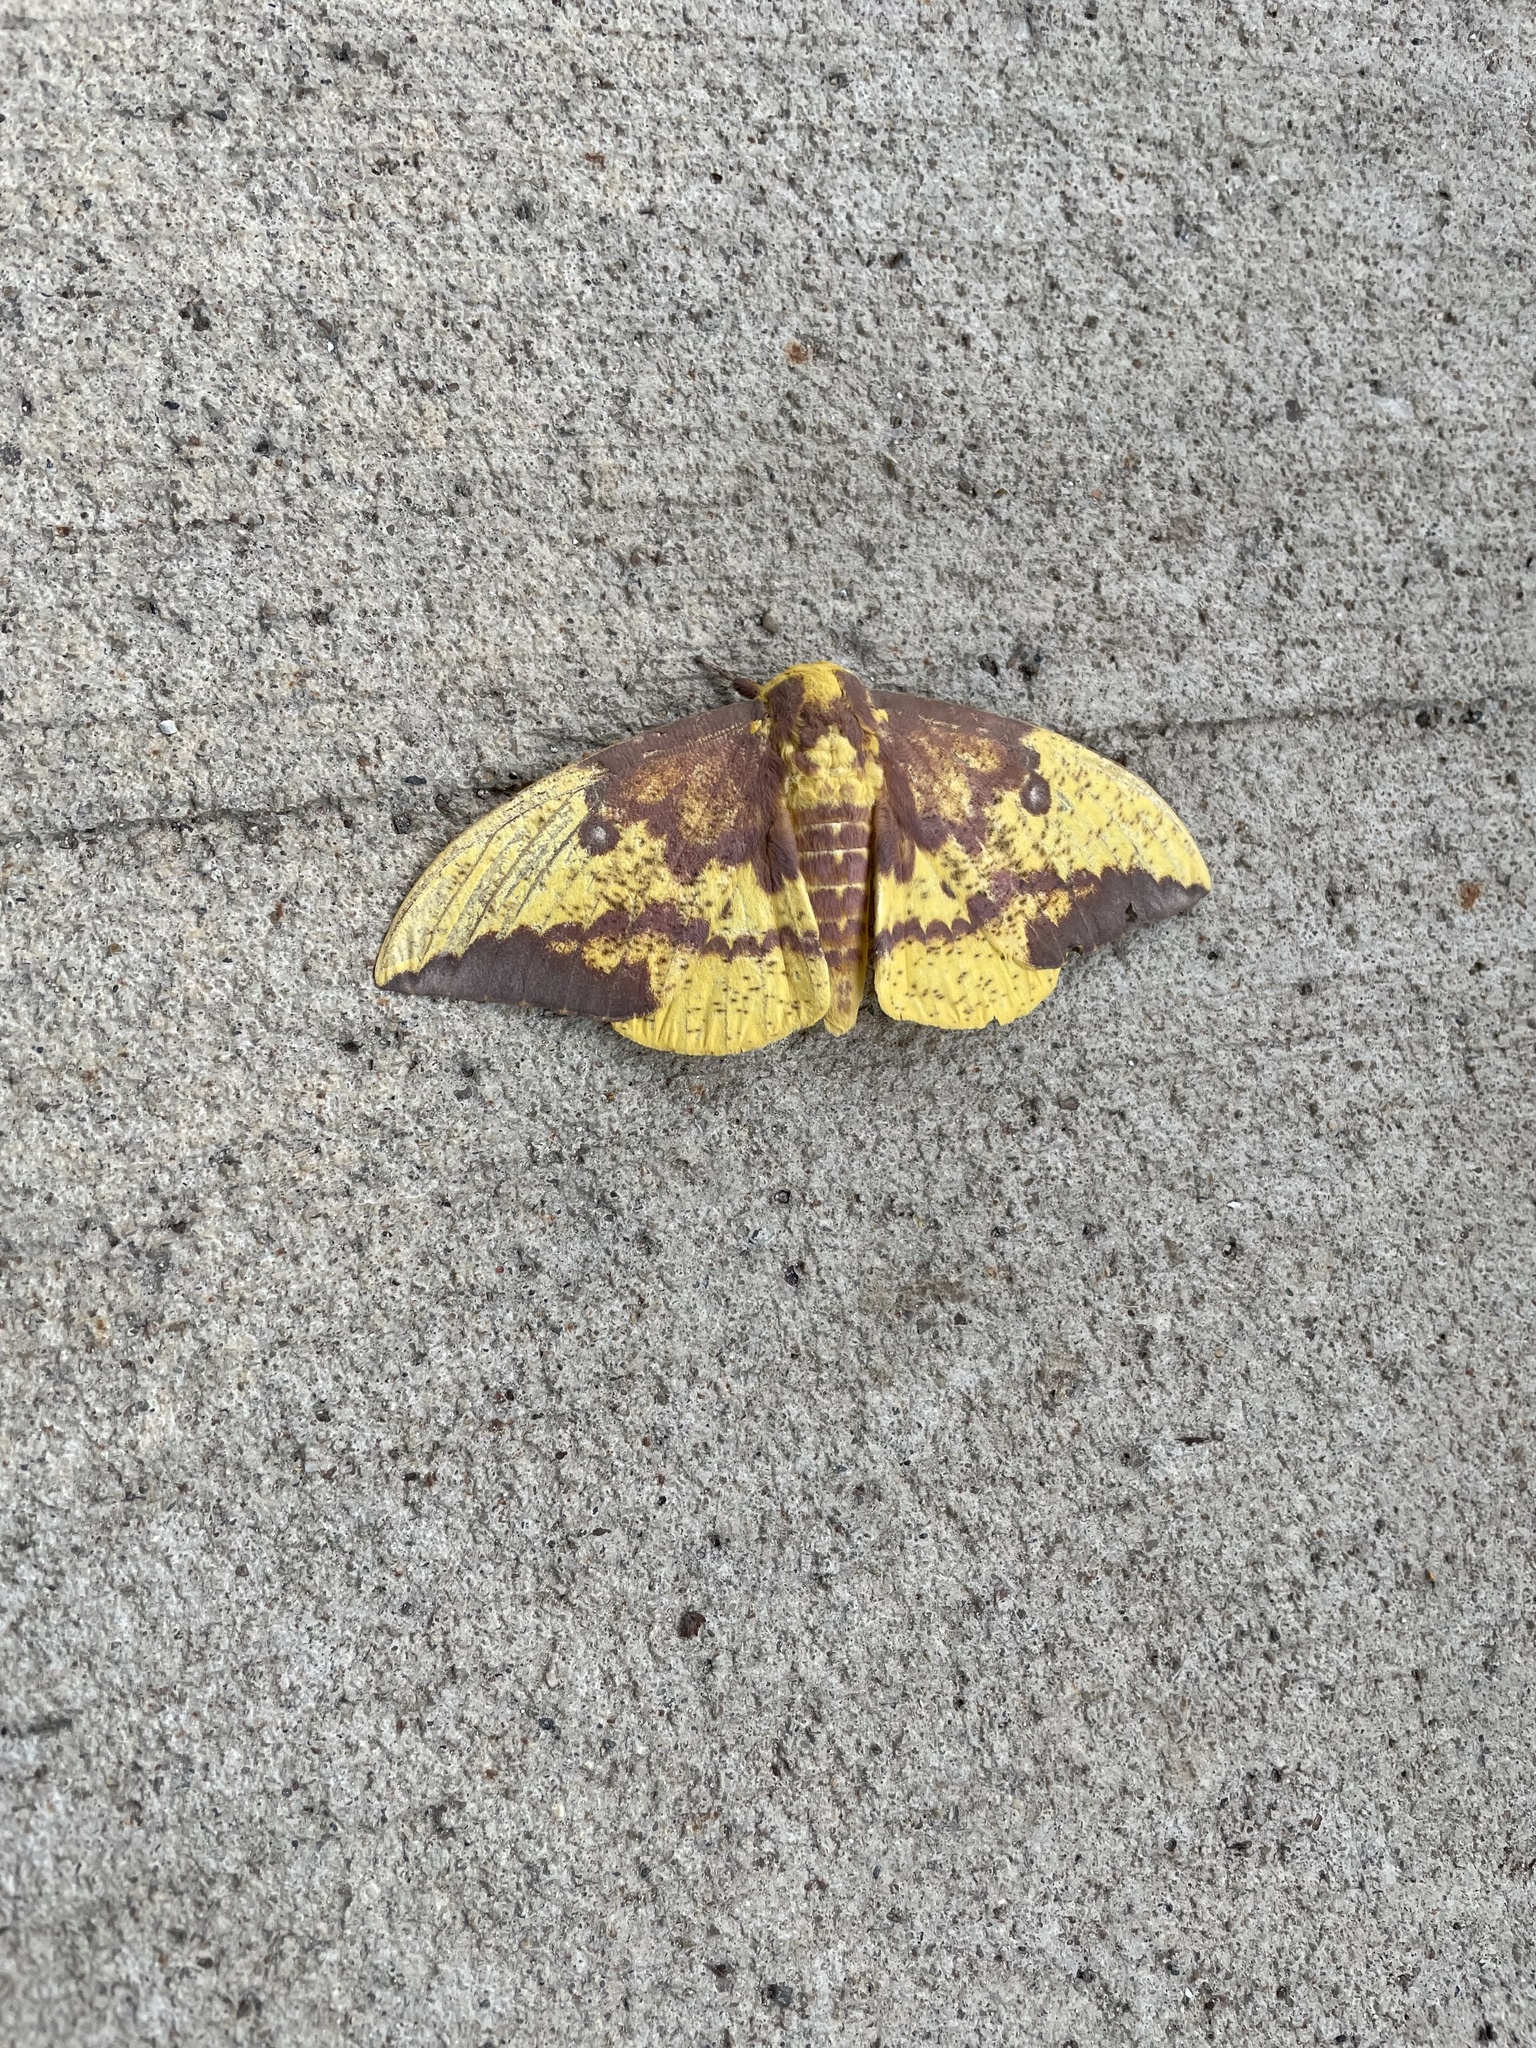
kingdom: Animalia
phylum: Arthropoda
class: Insecta
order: Lepidoptera
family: Saturniidae
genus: Eacles
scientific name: Eacles imperialis
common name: Imperial moth
